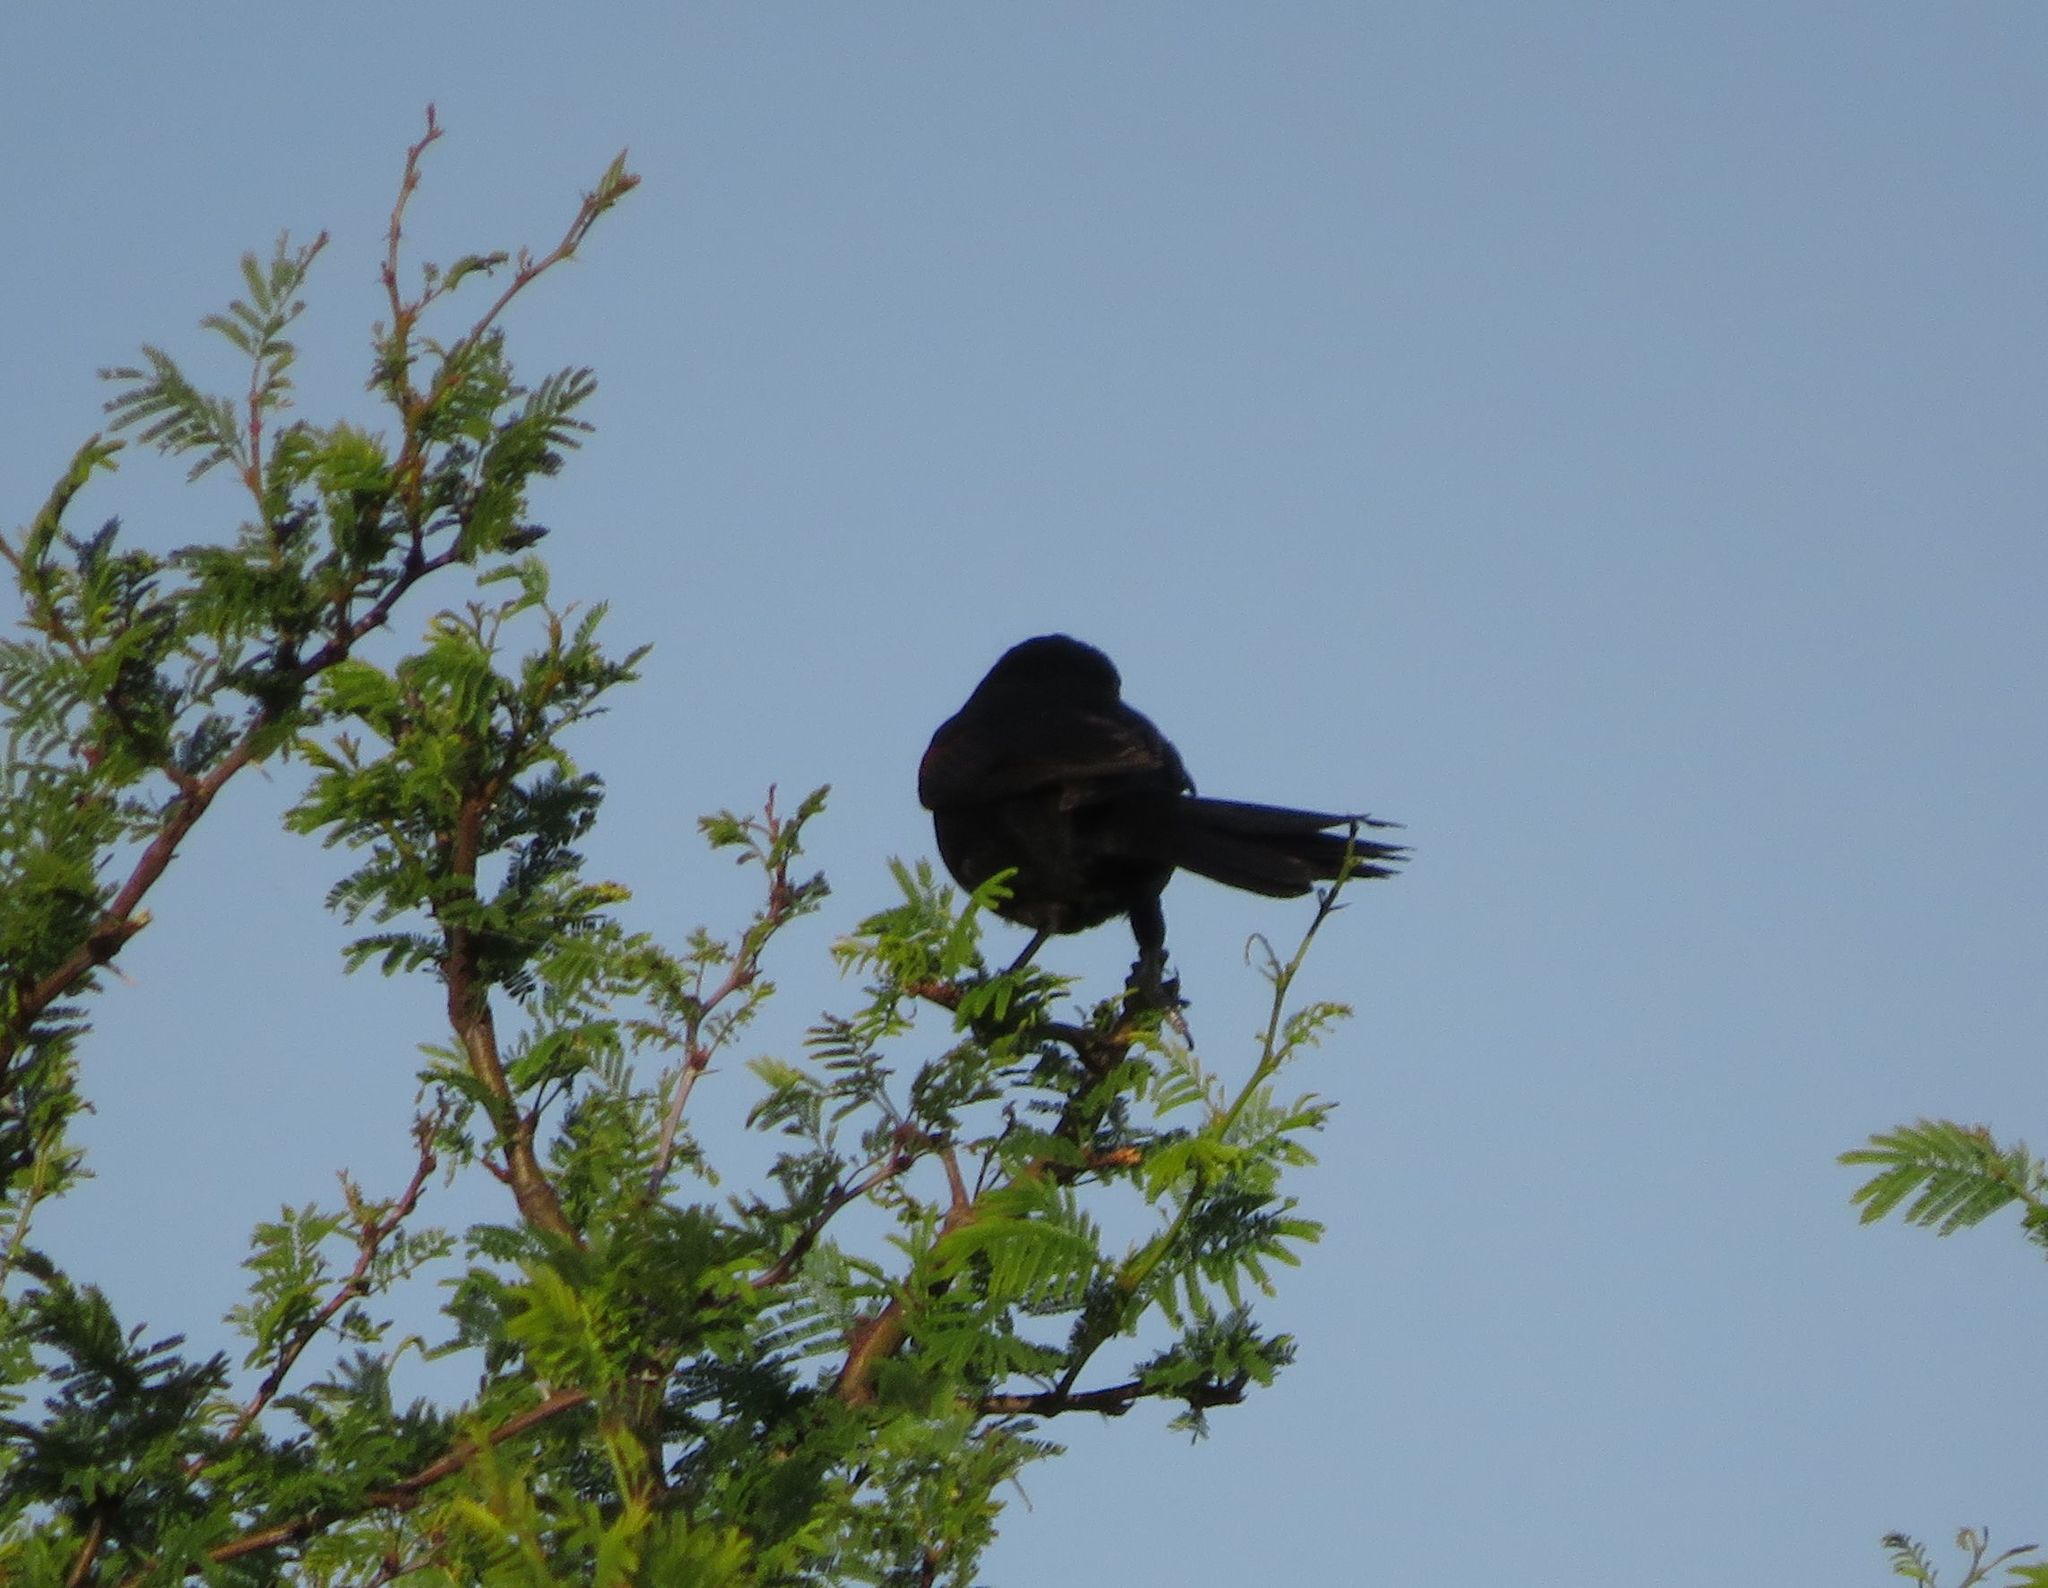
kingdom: Animalia
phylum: Chordata
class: Aves
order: Passeriformes
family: Icteridae
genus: Icterus
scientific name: Icterus cayanensis
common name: Epaulet oriole
